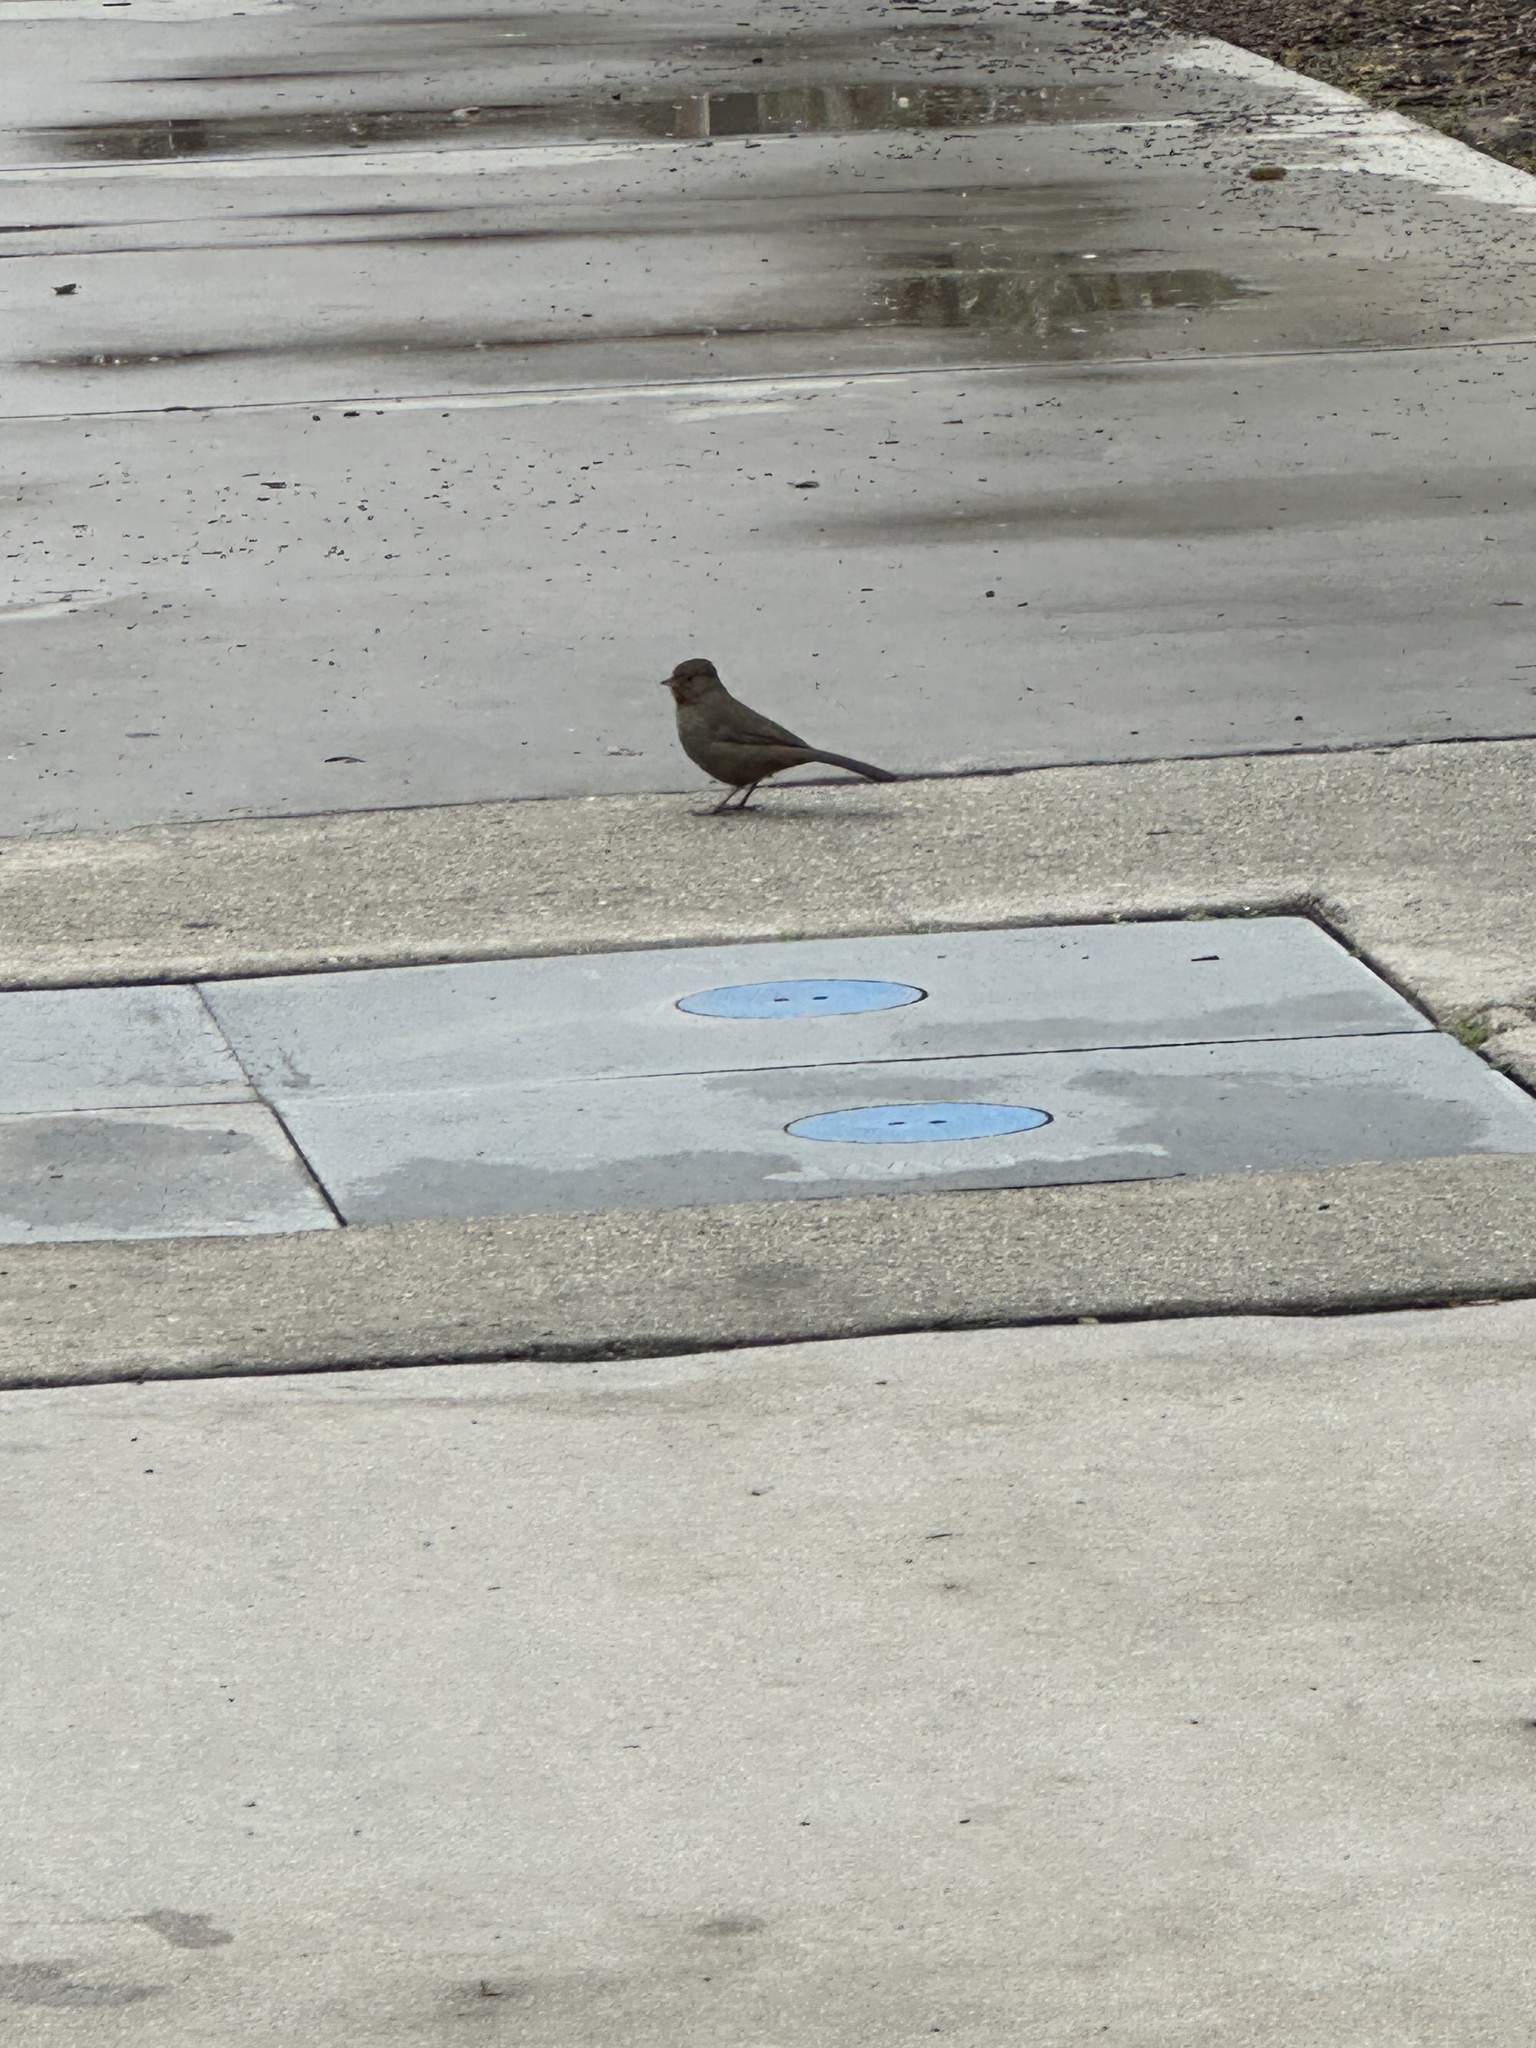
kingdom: Animalia
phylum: Chordata
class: Aves
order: Passeriformes
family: Passerellidae
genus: Melozone
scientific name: Melozone crissalis
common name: California towhee
